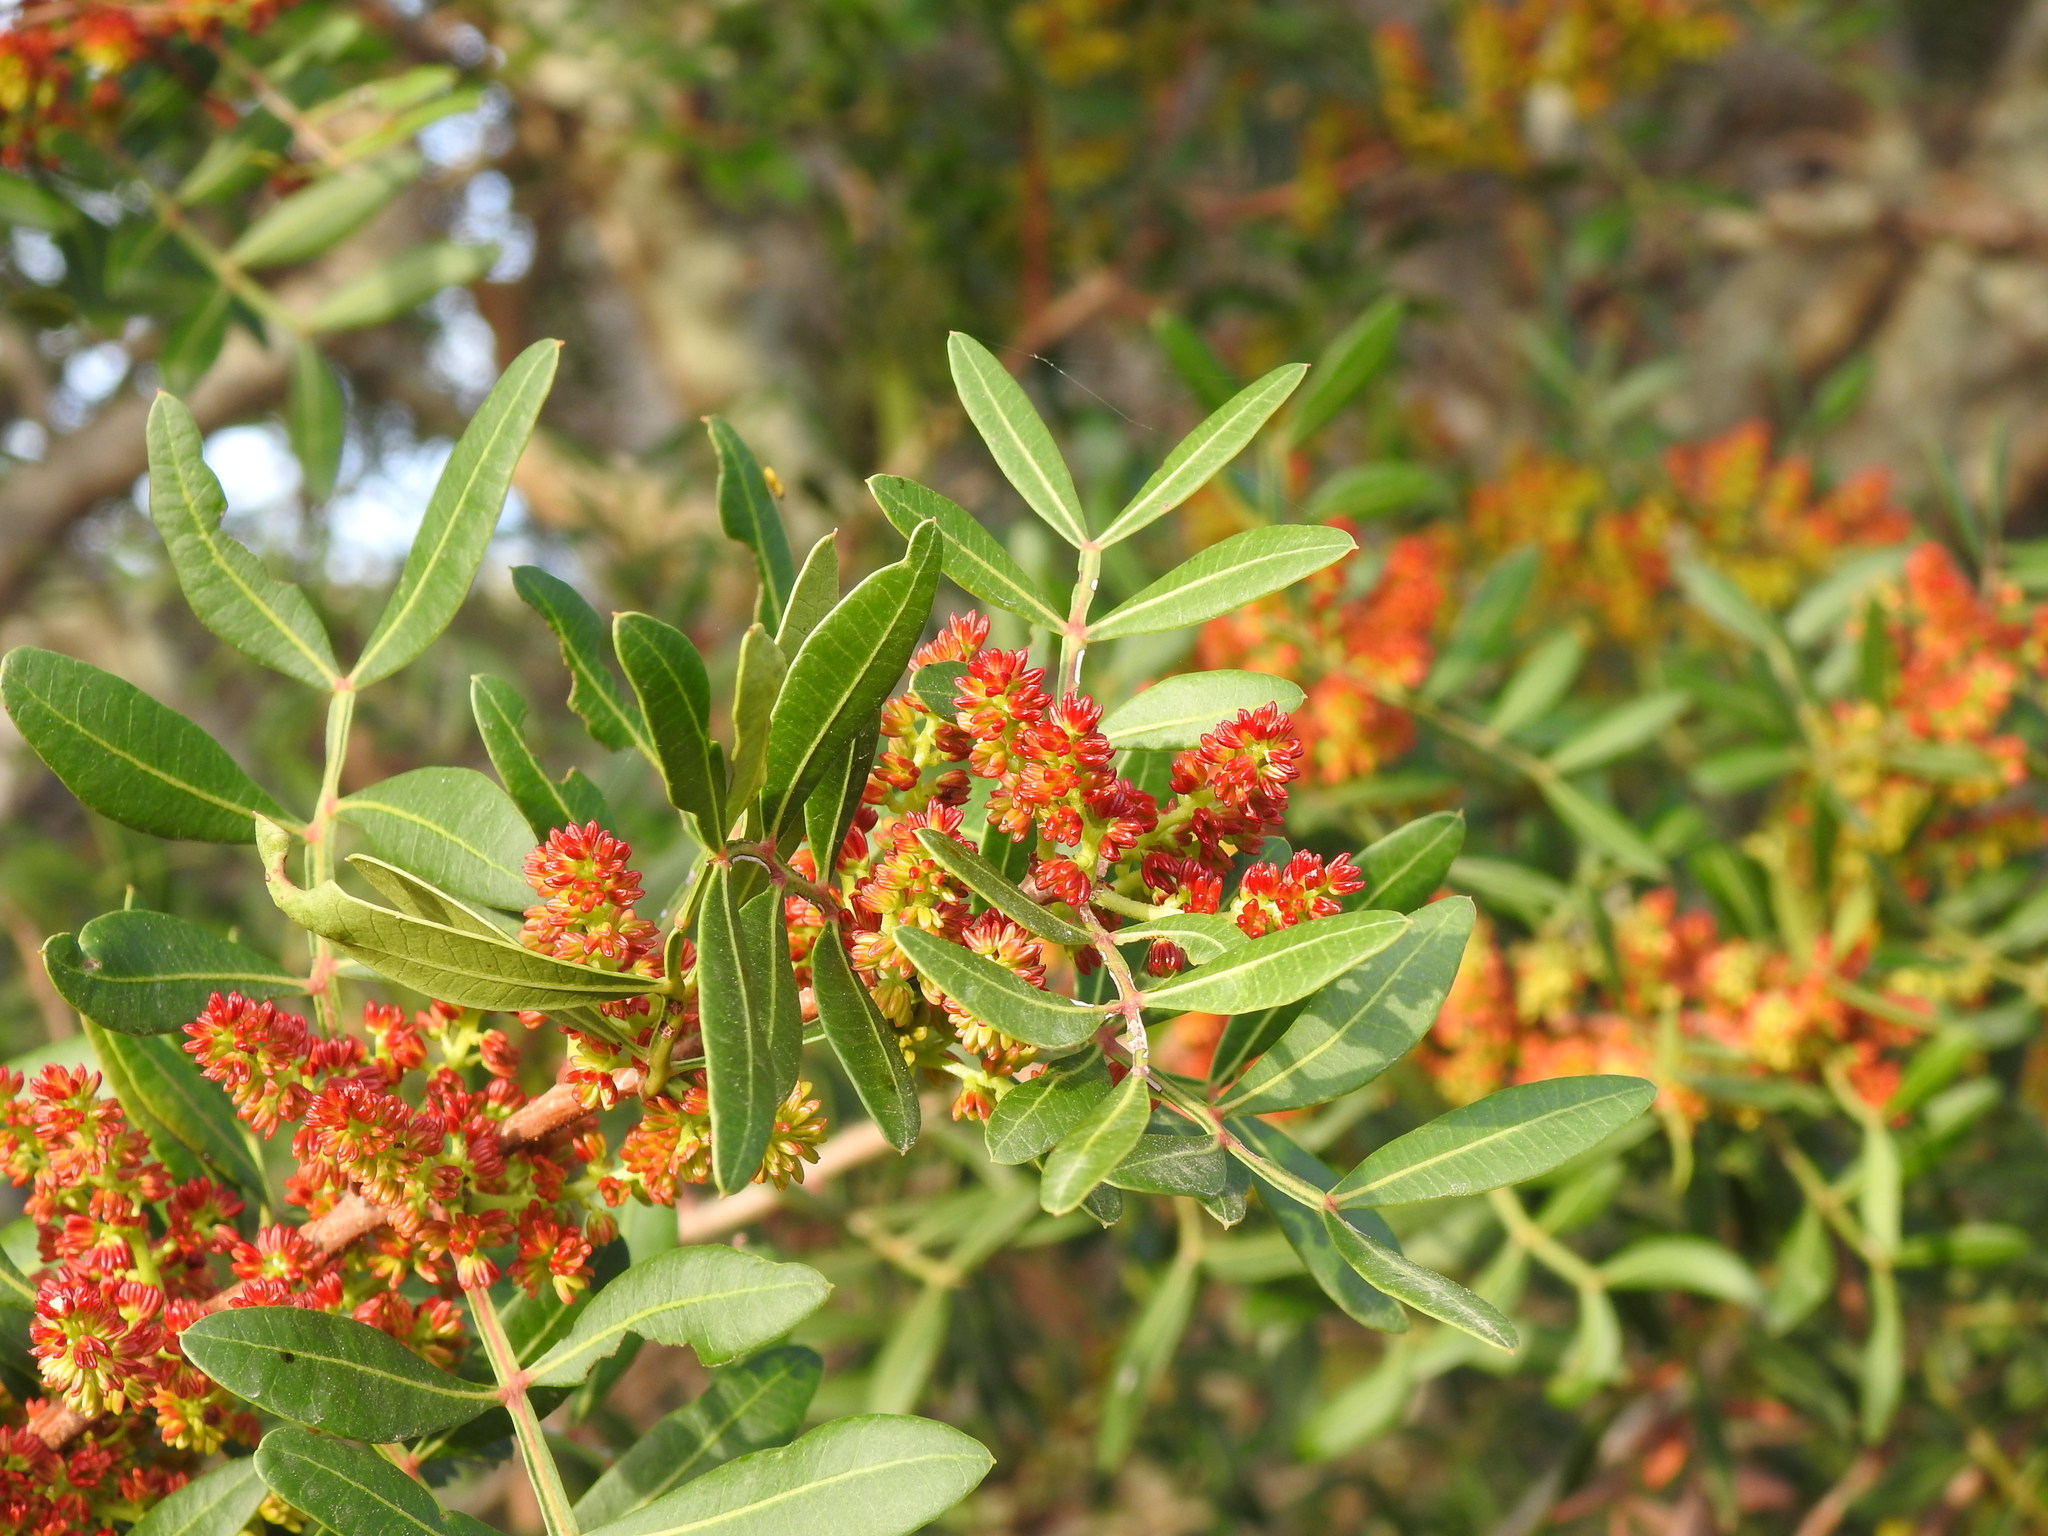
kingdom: Plantae
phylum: Tracheophyta
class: Magnoliopsida
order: Sapindales
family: Anacardiaceae
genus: Pistacia
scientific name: Pistacia lentiscus
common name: Lentisk
